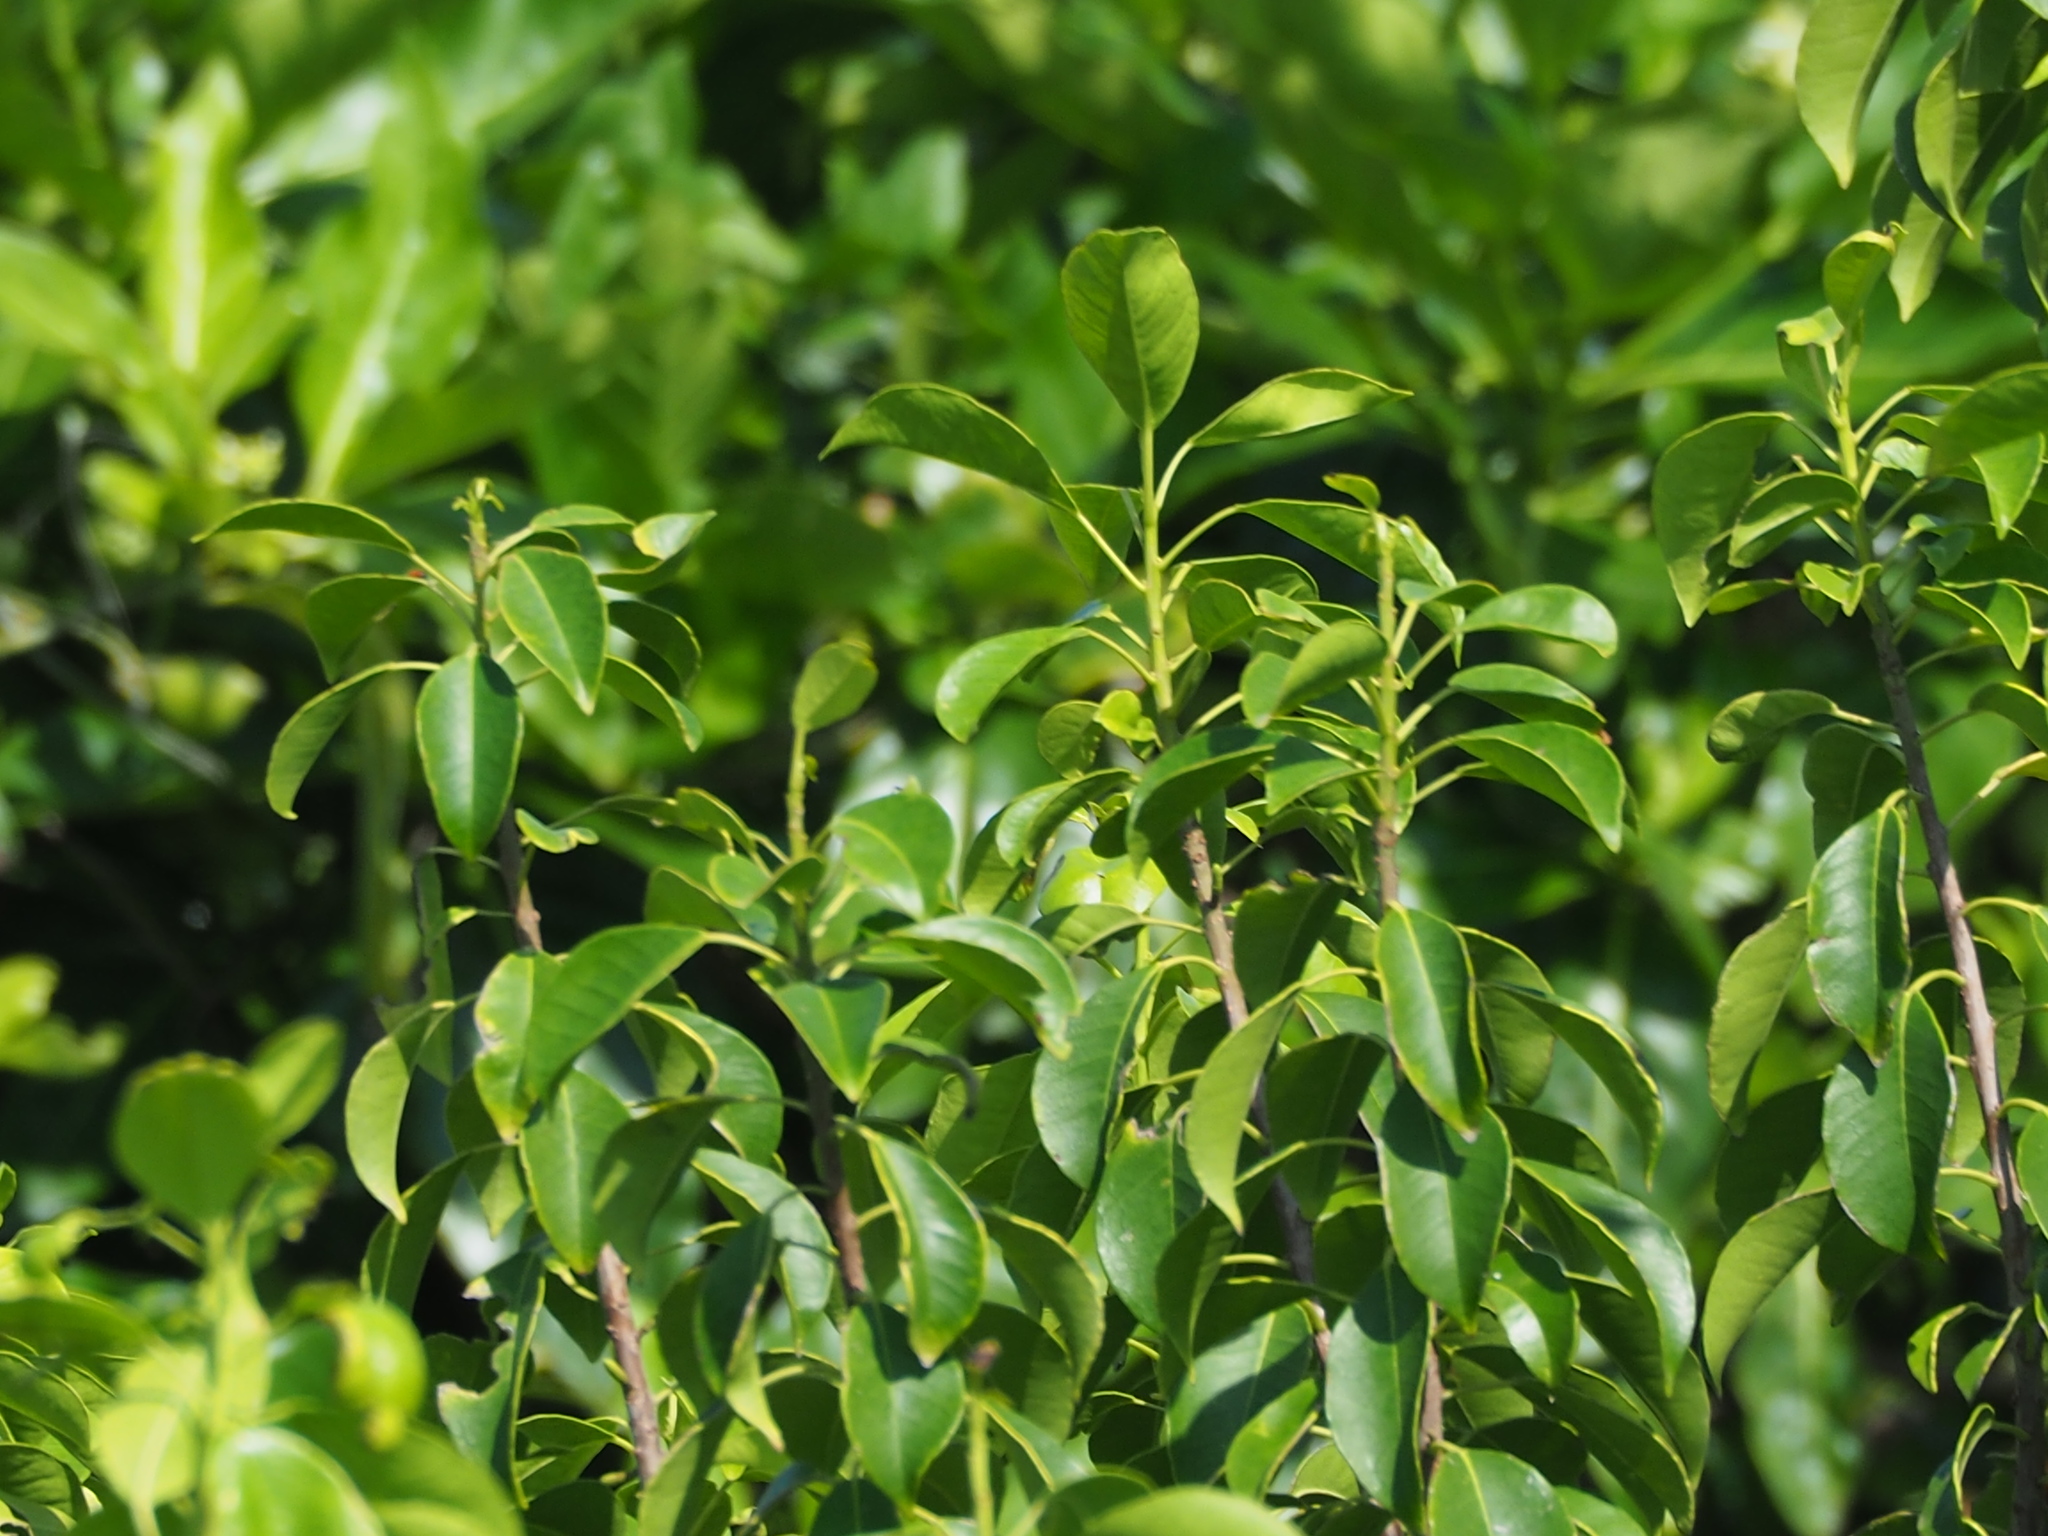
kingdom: Plantae
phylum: Tracheophyta
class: Magnoliopsida
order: Malpighiales
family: Euphorbiaceae
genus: Excoecaria
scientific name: Excoecaria agallocha
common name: River poisontree
